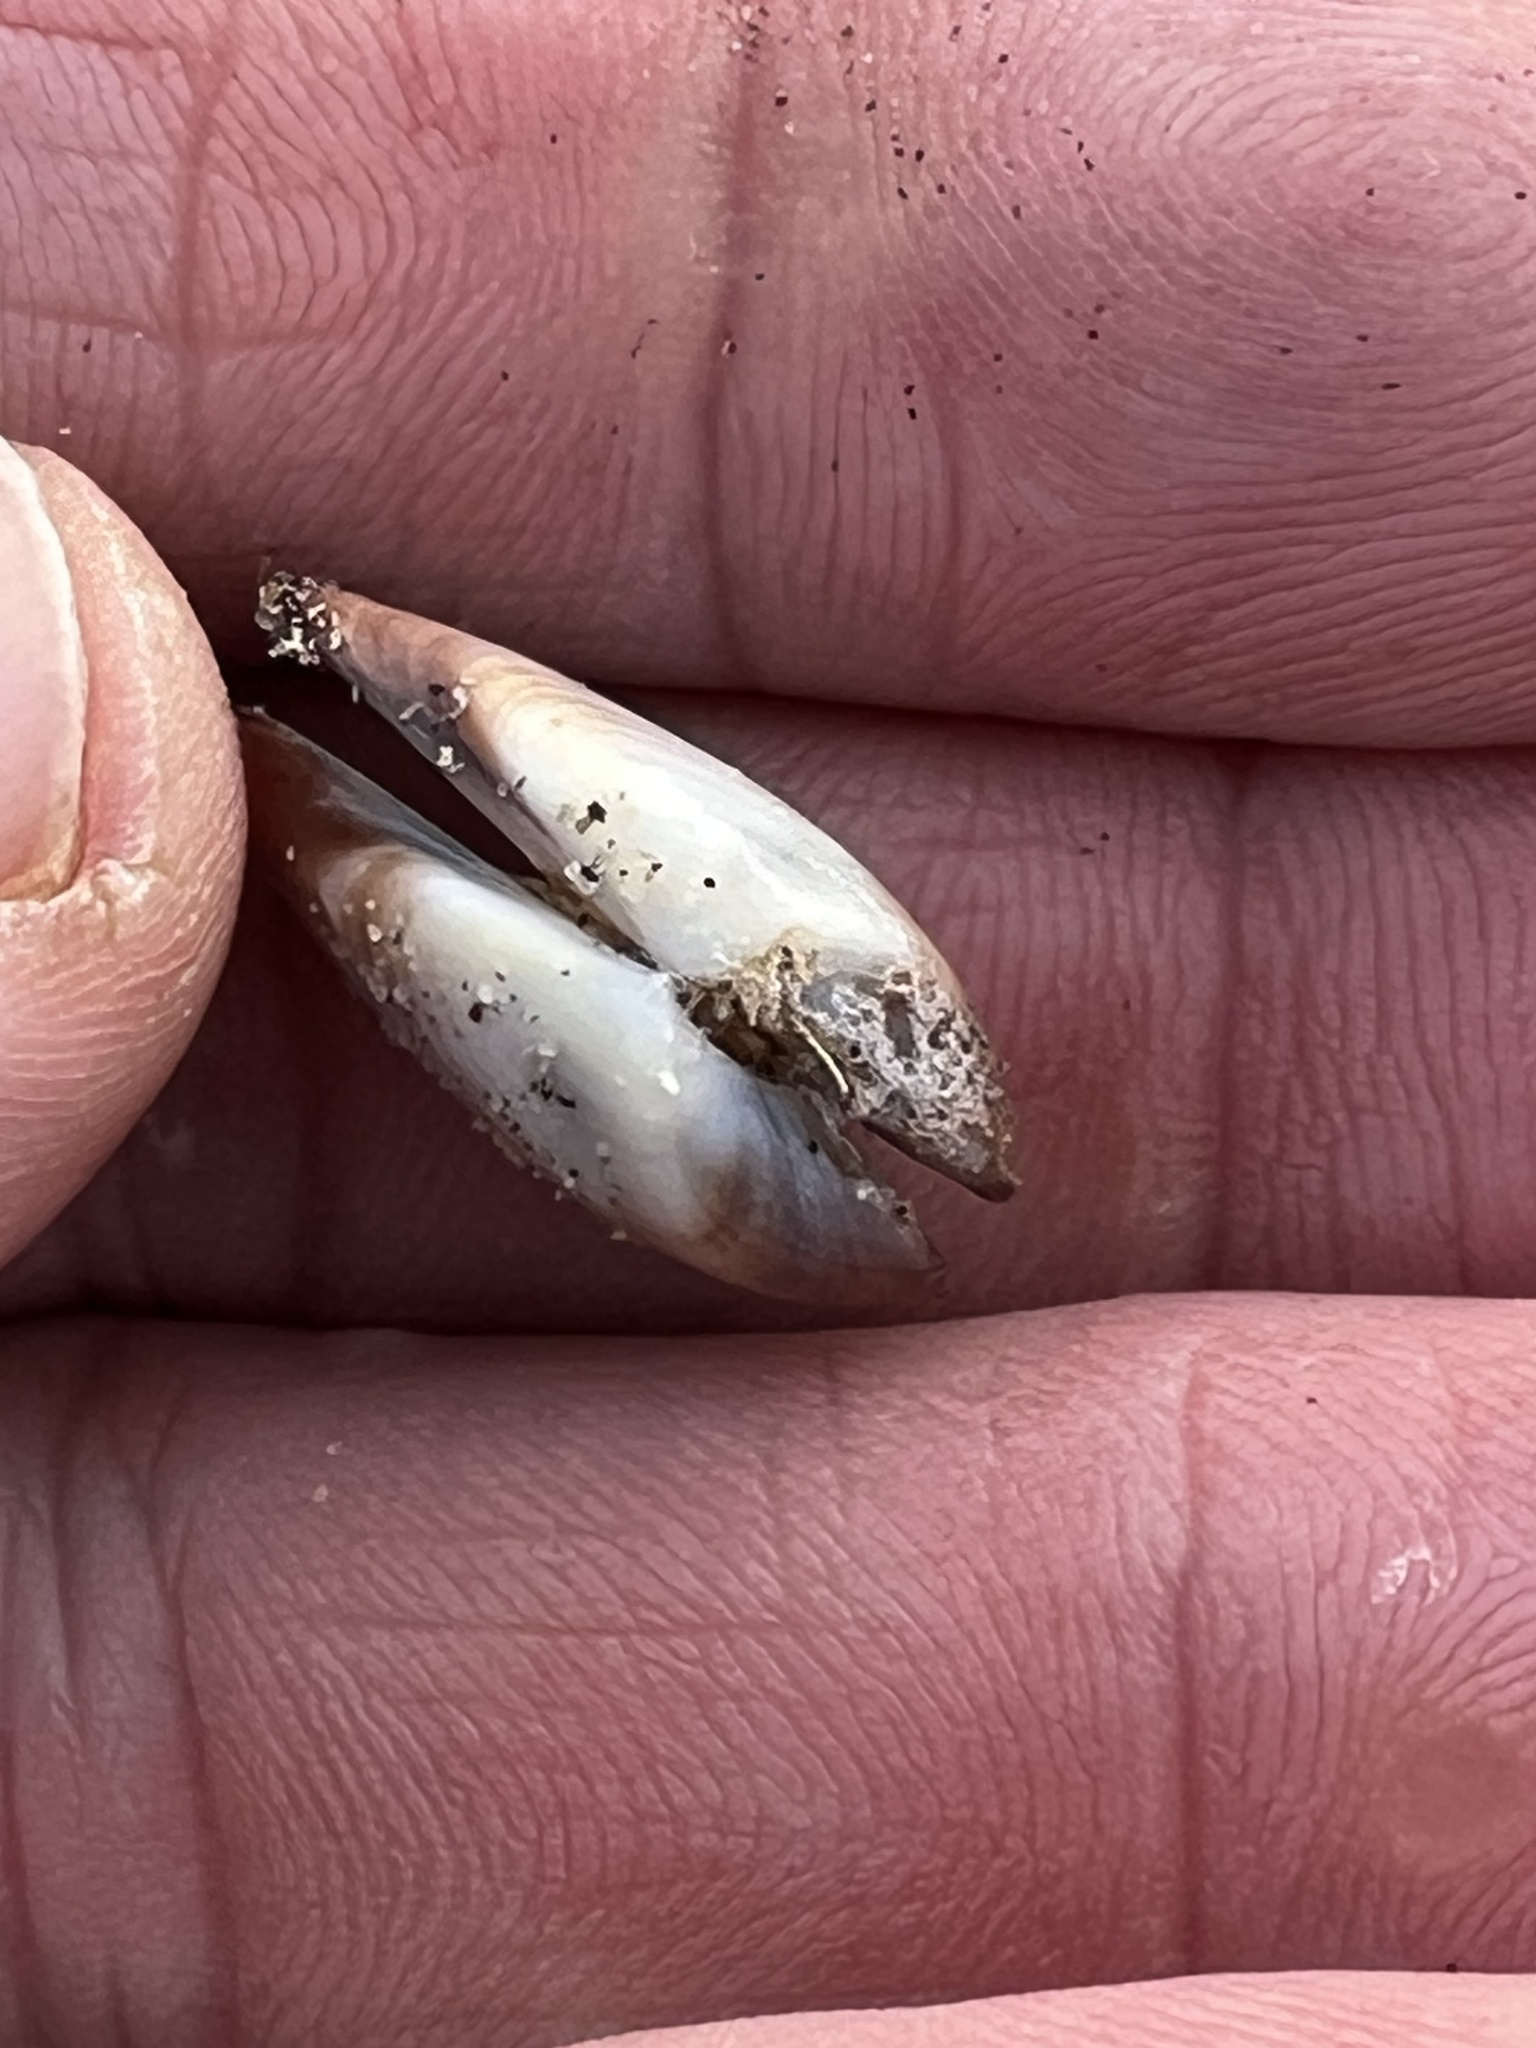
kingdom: Animalia
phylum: Mollusca
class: Bivalvia
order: Cardiida
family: Donacidae
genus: Donax
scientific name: Donax gouldii
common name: Gould beanclam
